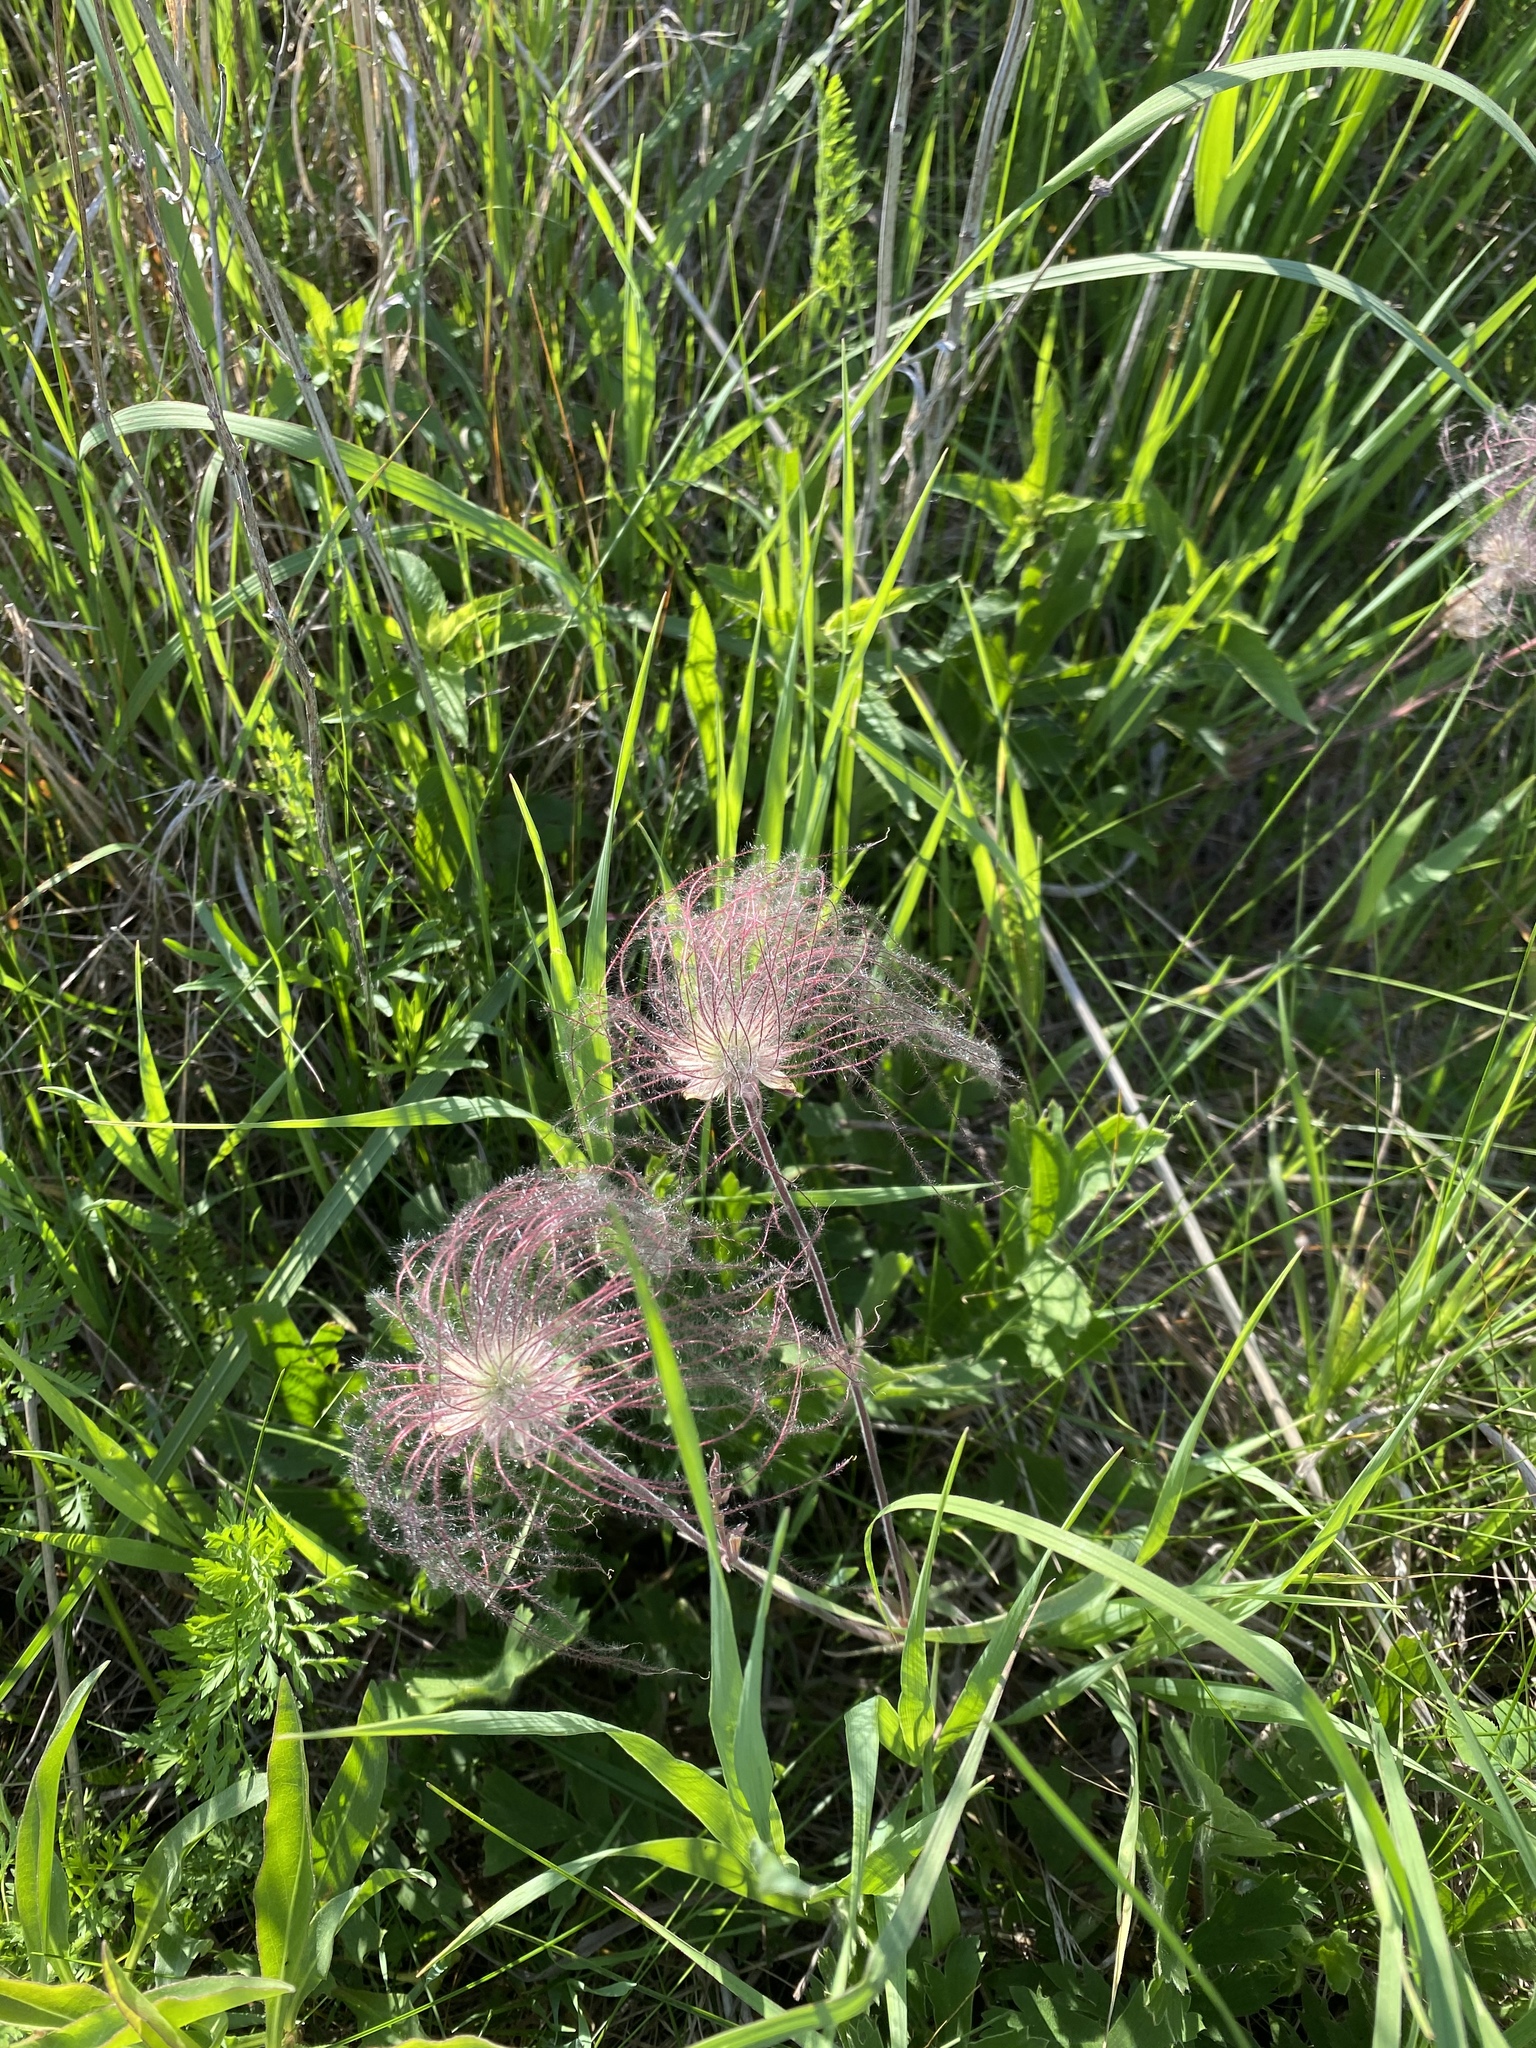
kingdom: Plantae
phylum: Tracheophyta
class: Magnoliopsida
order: Rosales
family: Rosaceae
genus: Geum
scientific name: Geum triflorum
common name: Old man's whiskers
